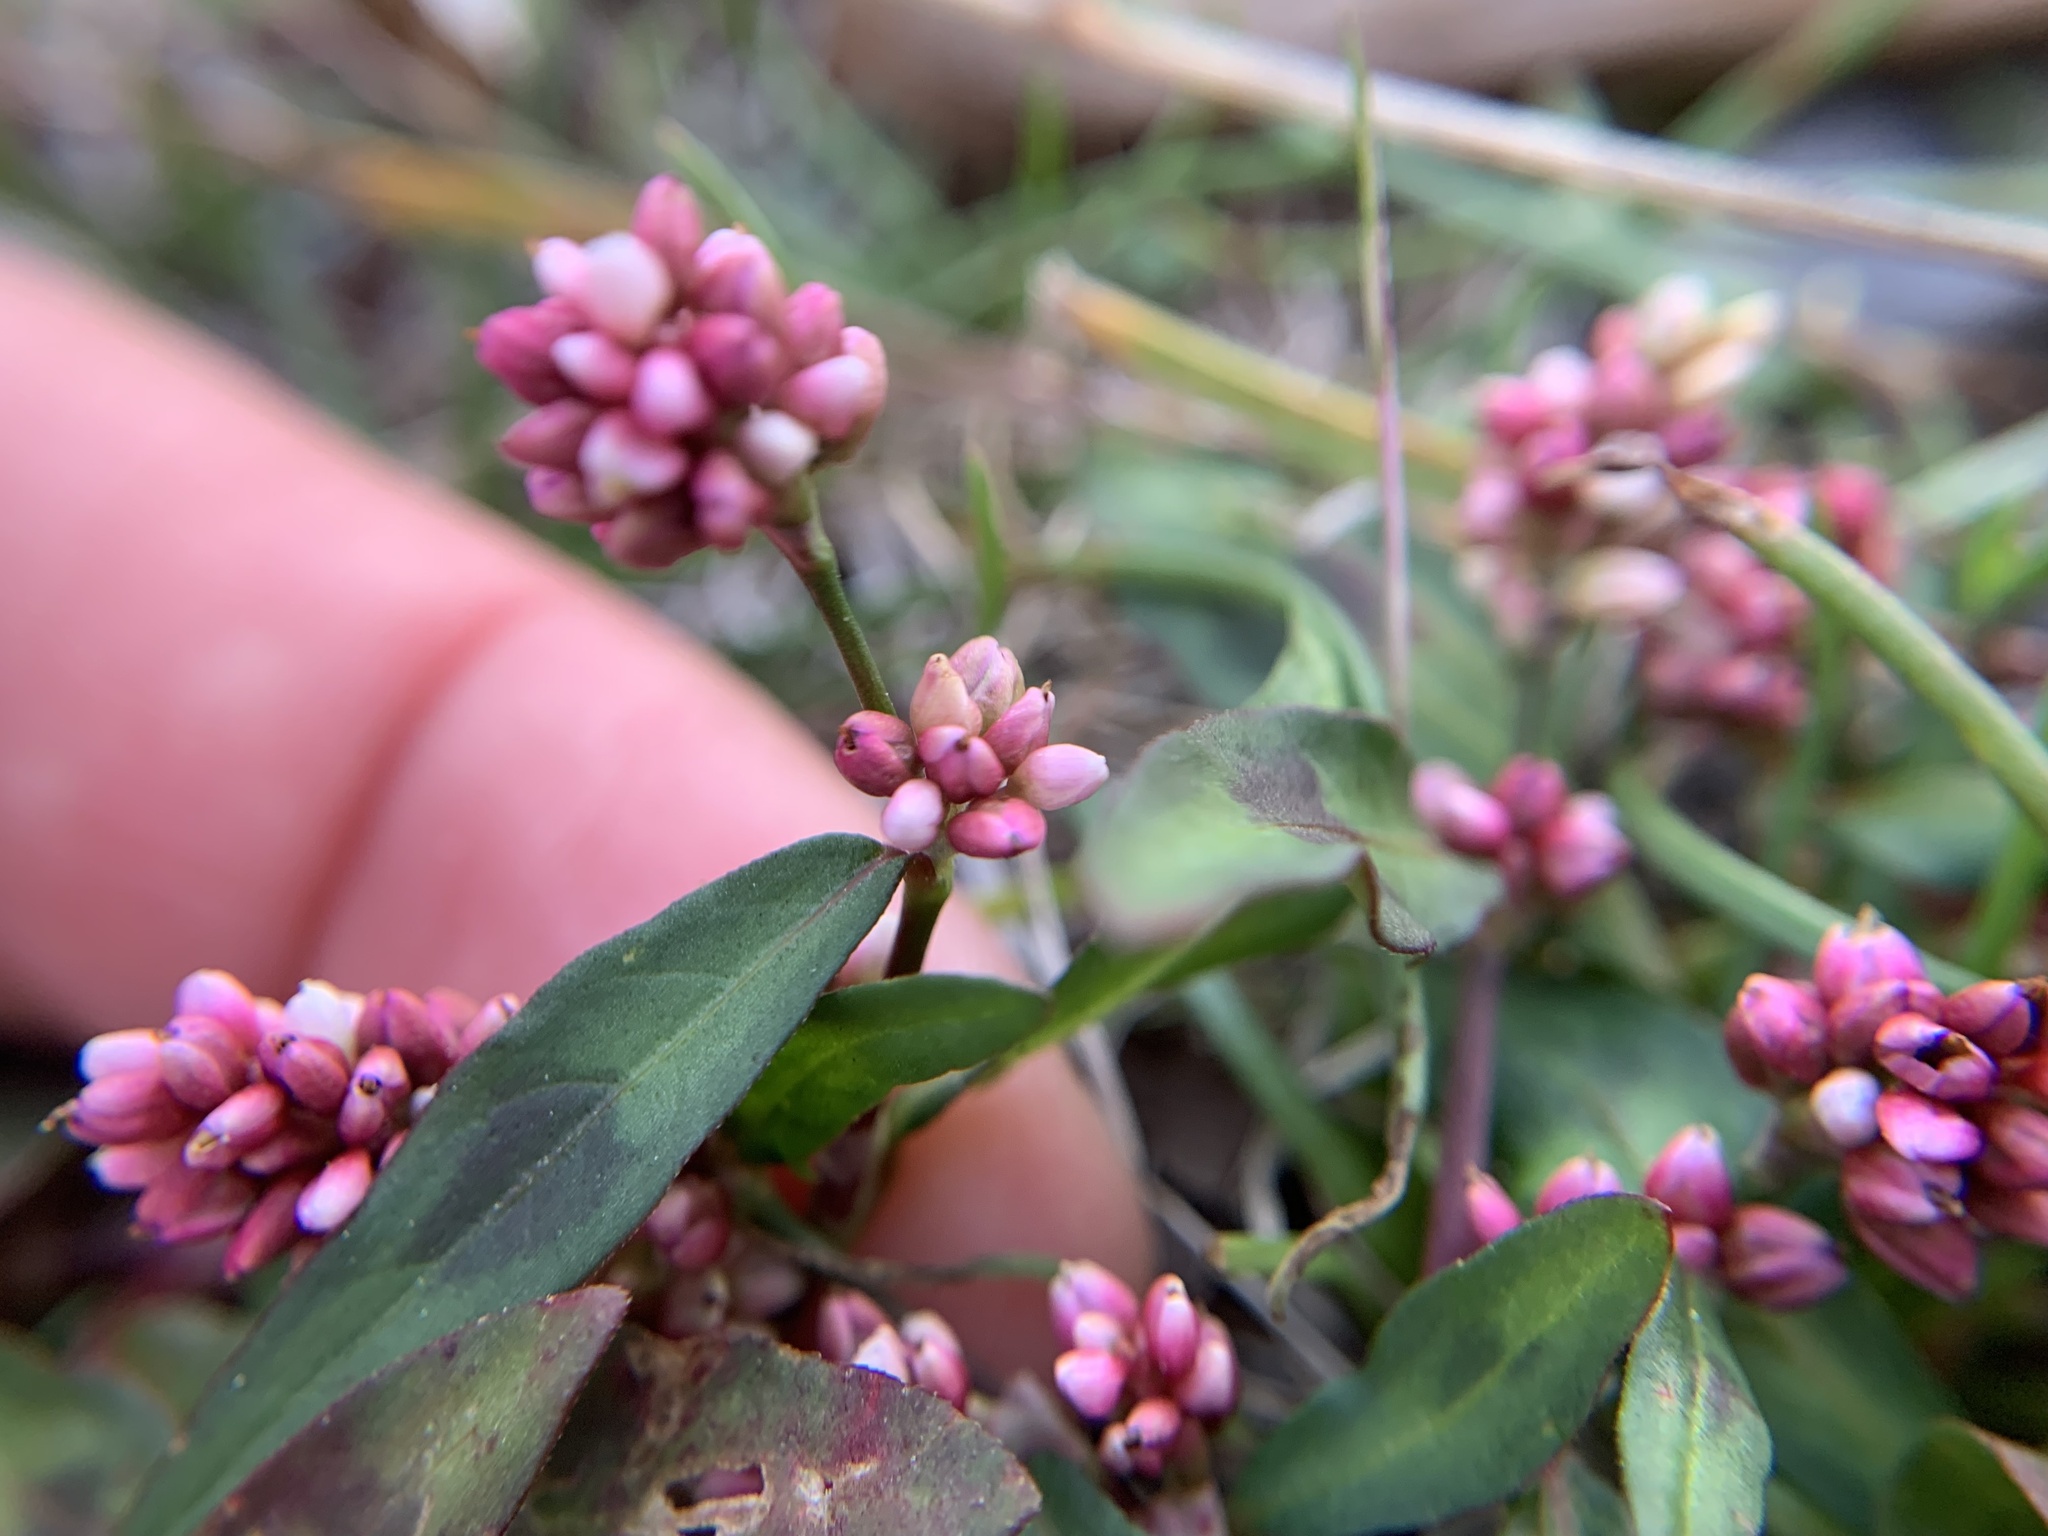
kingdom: Plantae
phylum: Tracheophyta
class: Magnoliopsida
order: Caryophyllales
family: Polygonaceae
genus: Persicaria
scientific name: Persicaria maculosa
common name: Redshank
